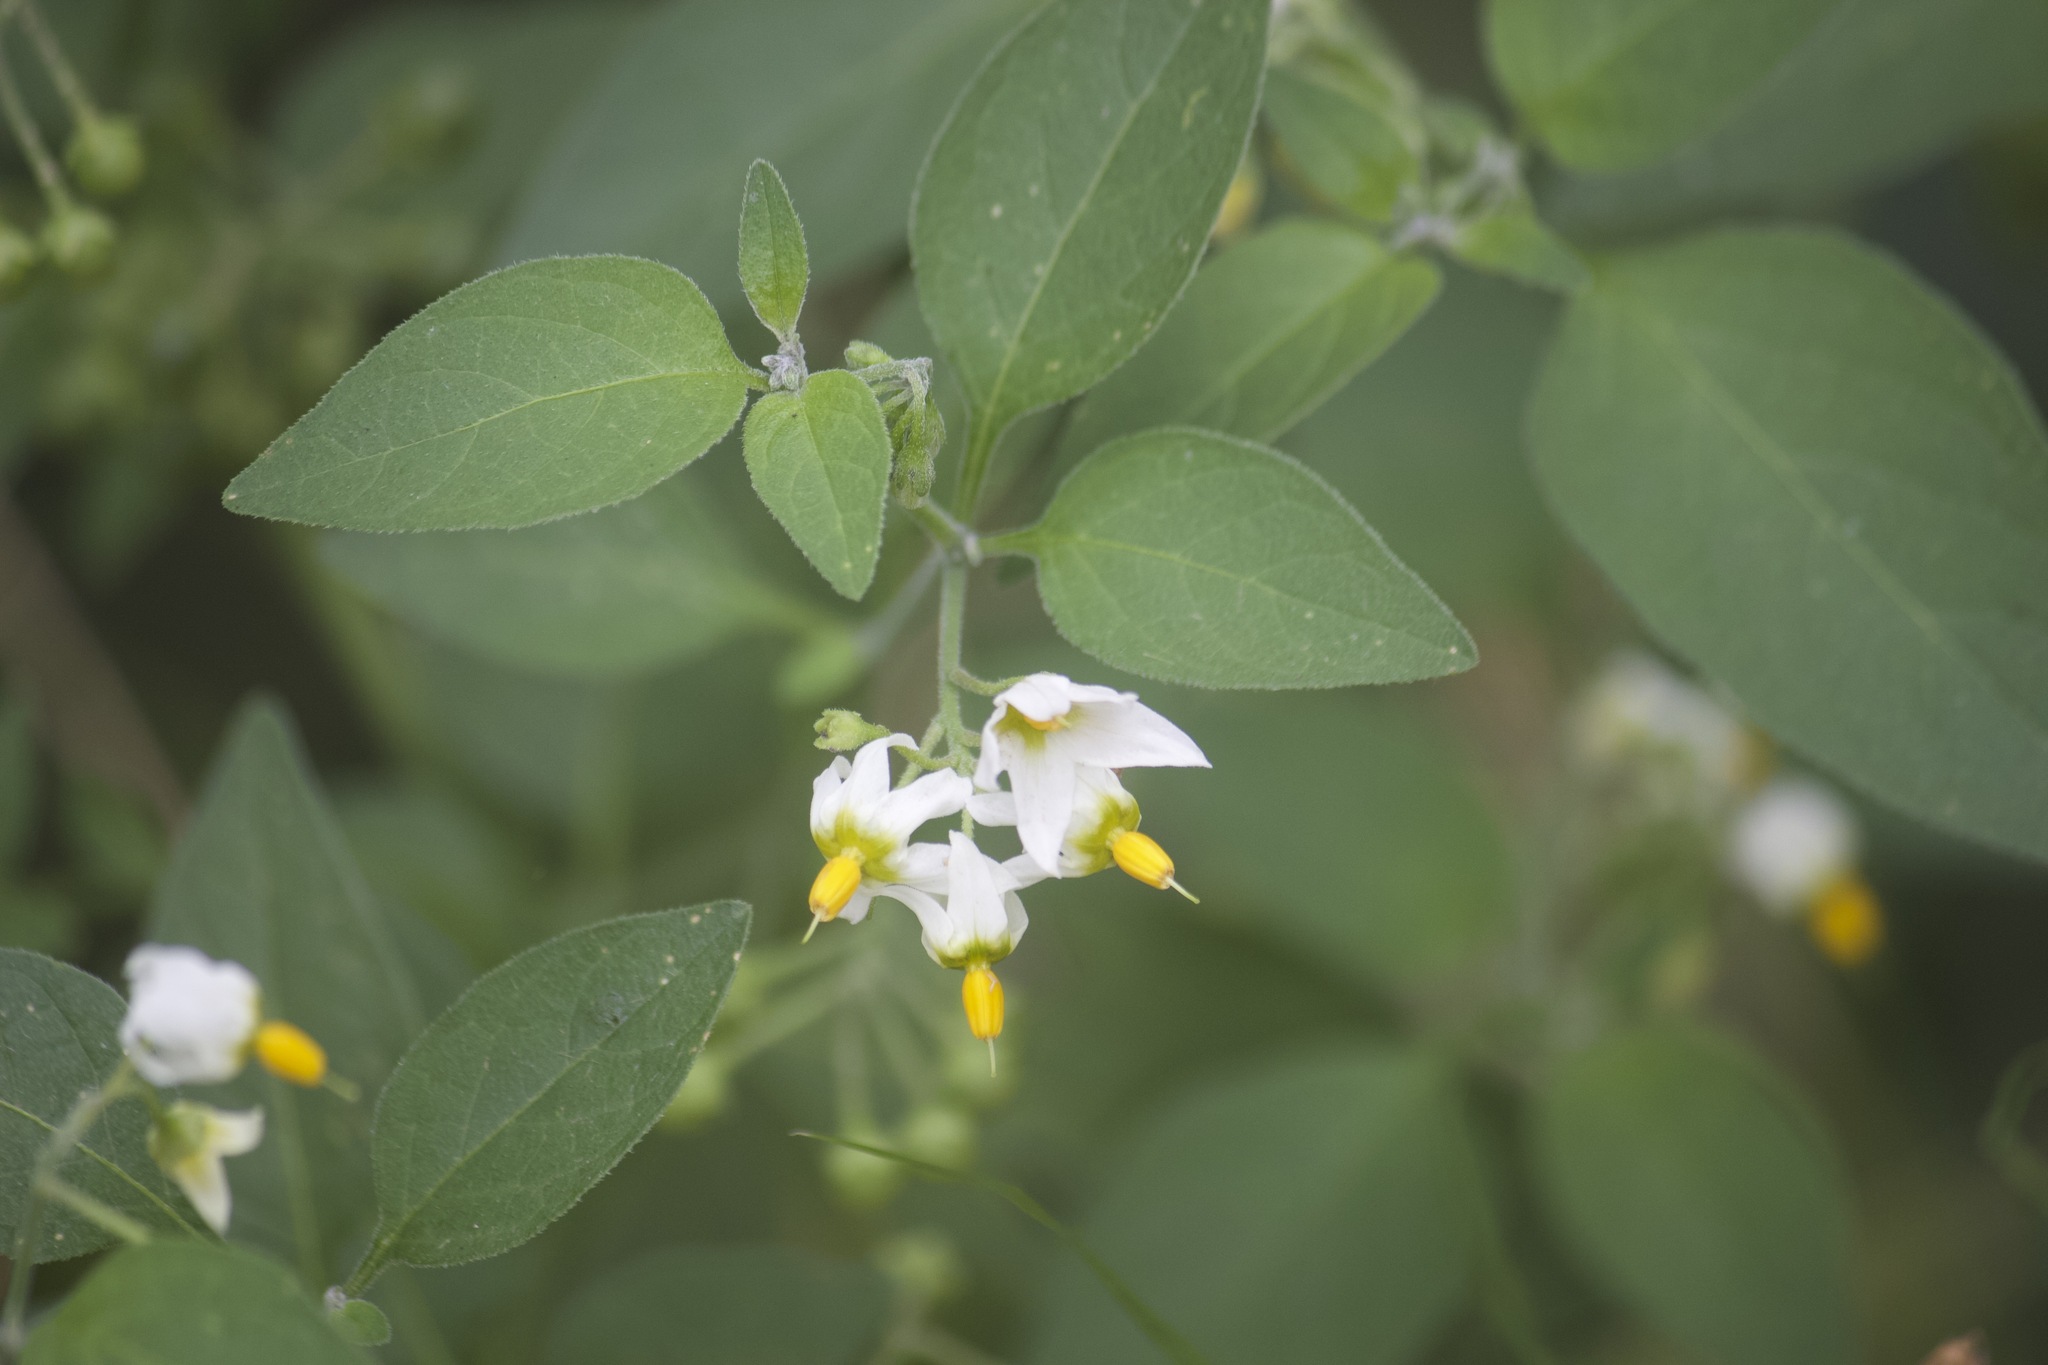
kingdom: Plantae
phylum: Tracheophyta
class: Magnoliopsida
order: Solanales
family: Solanaceae
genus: Solanum
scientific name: Solanum douglasii
